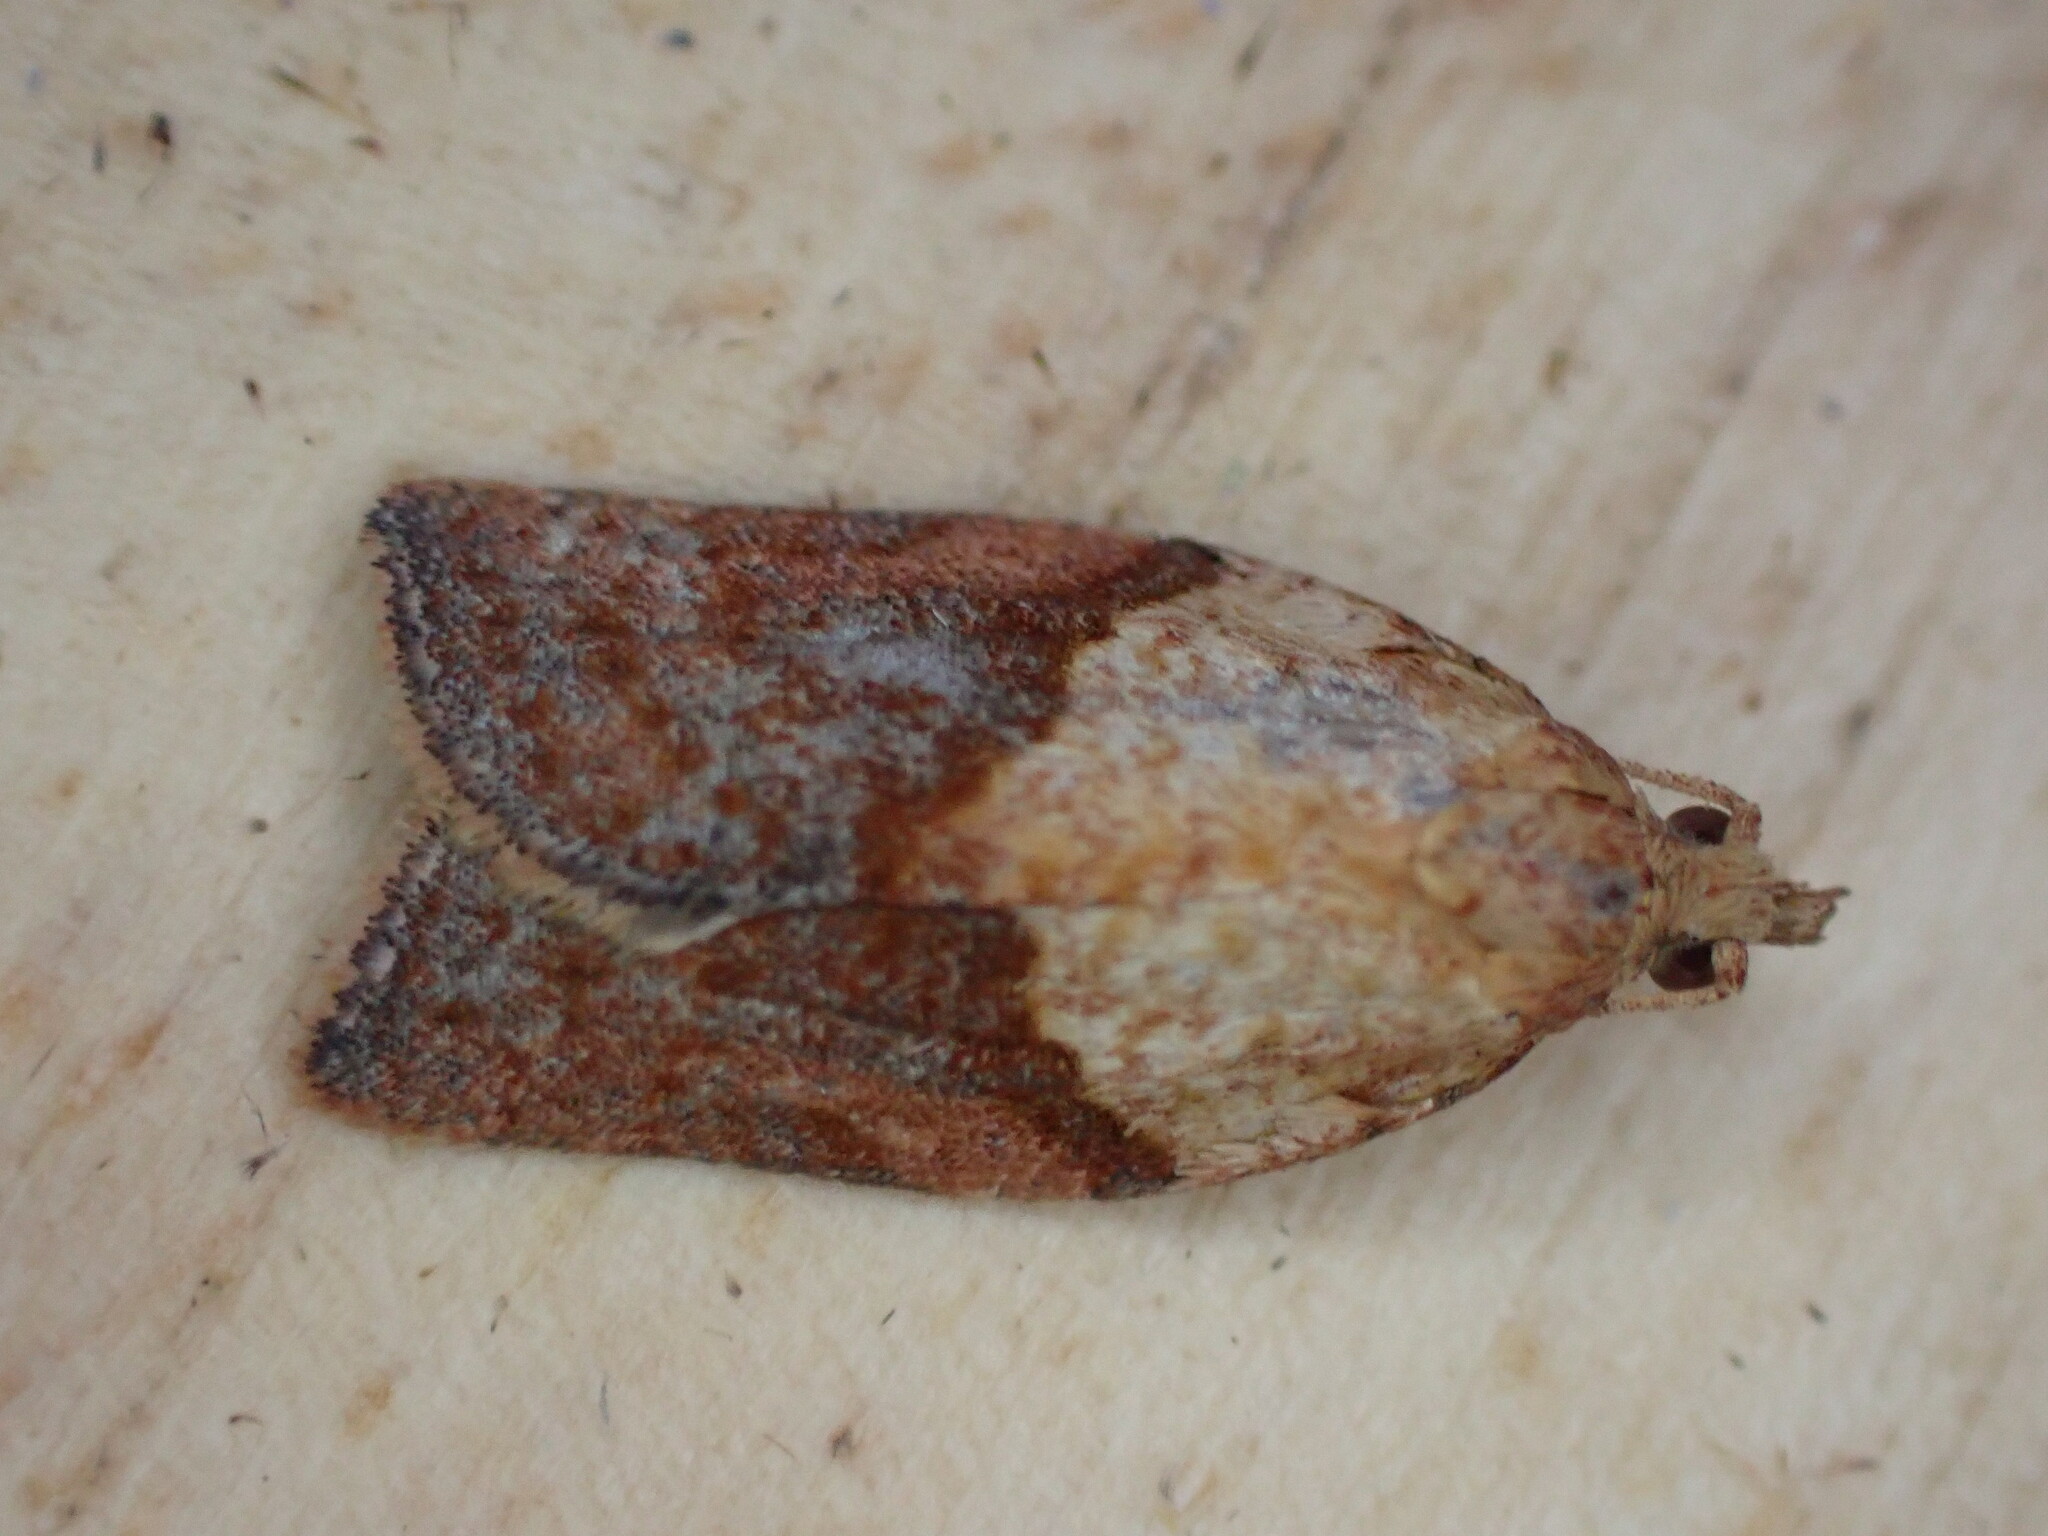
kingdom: Animalia
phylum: Arthropoda
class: Insecta
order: Lepidoptera
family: Tortricidae
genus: Epiphyas
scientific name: Epiphyas postvittana
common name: Light brown apple moth
